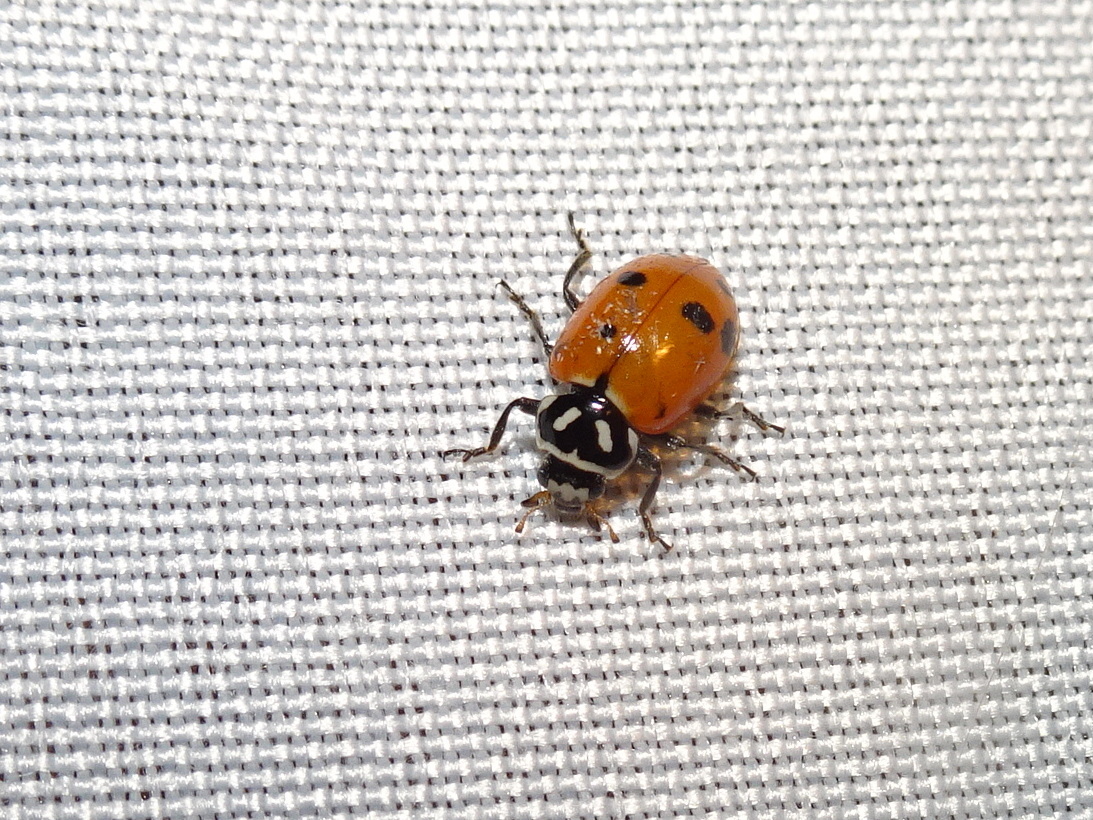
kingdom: Animalia
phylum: Arthropoda
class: Insecta
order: Coleoptera
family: Coccinellidae
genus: Hippodamia
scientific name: Hippodamia convergens
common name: Convergent lady beetle
